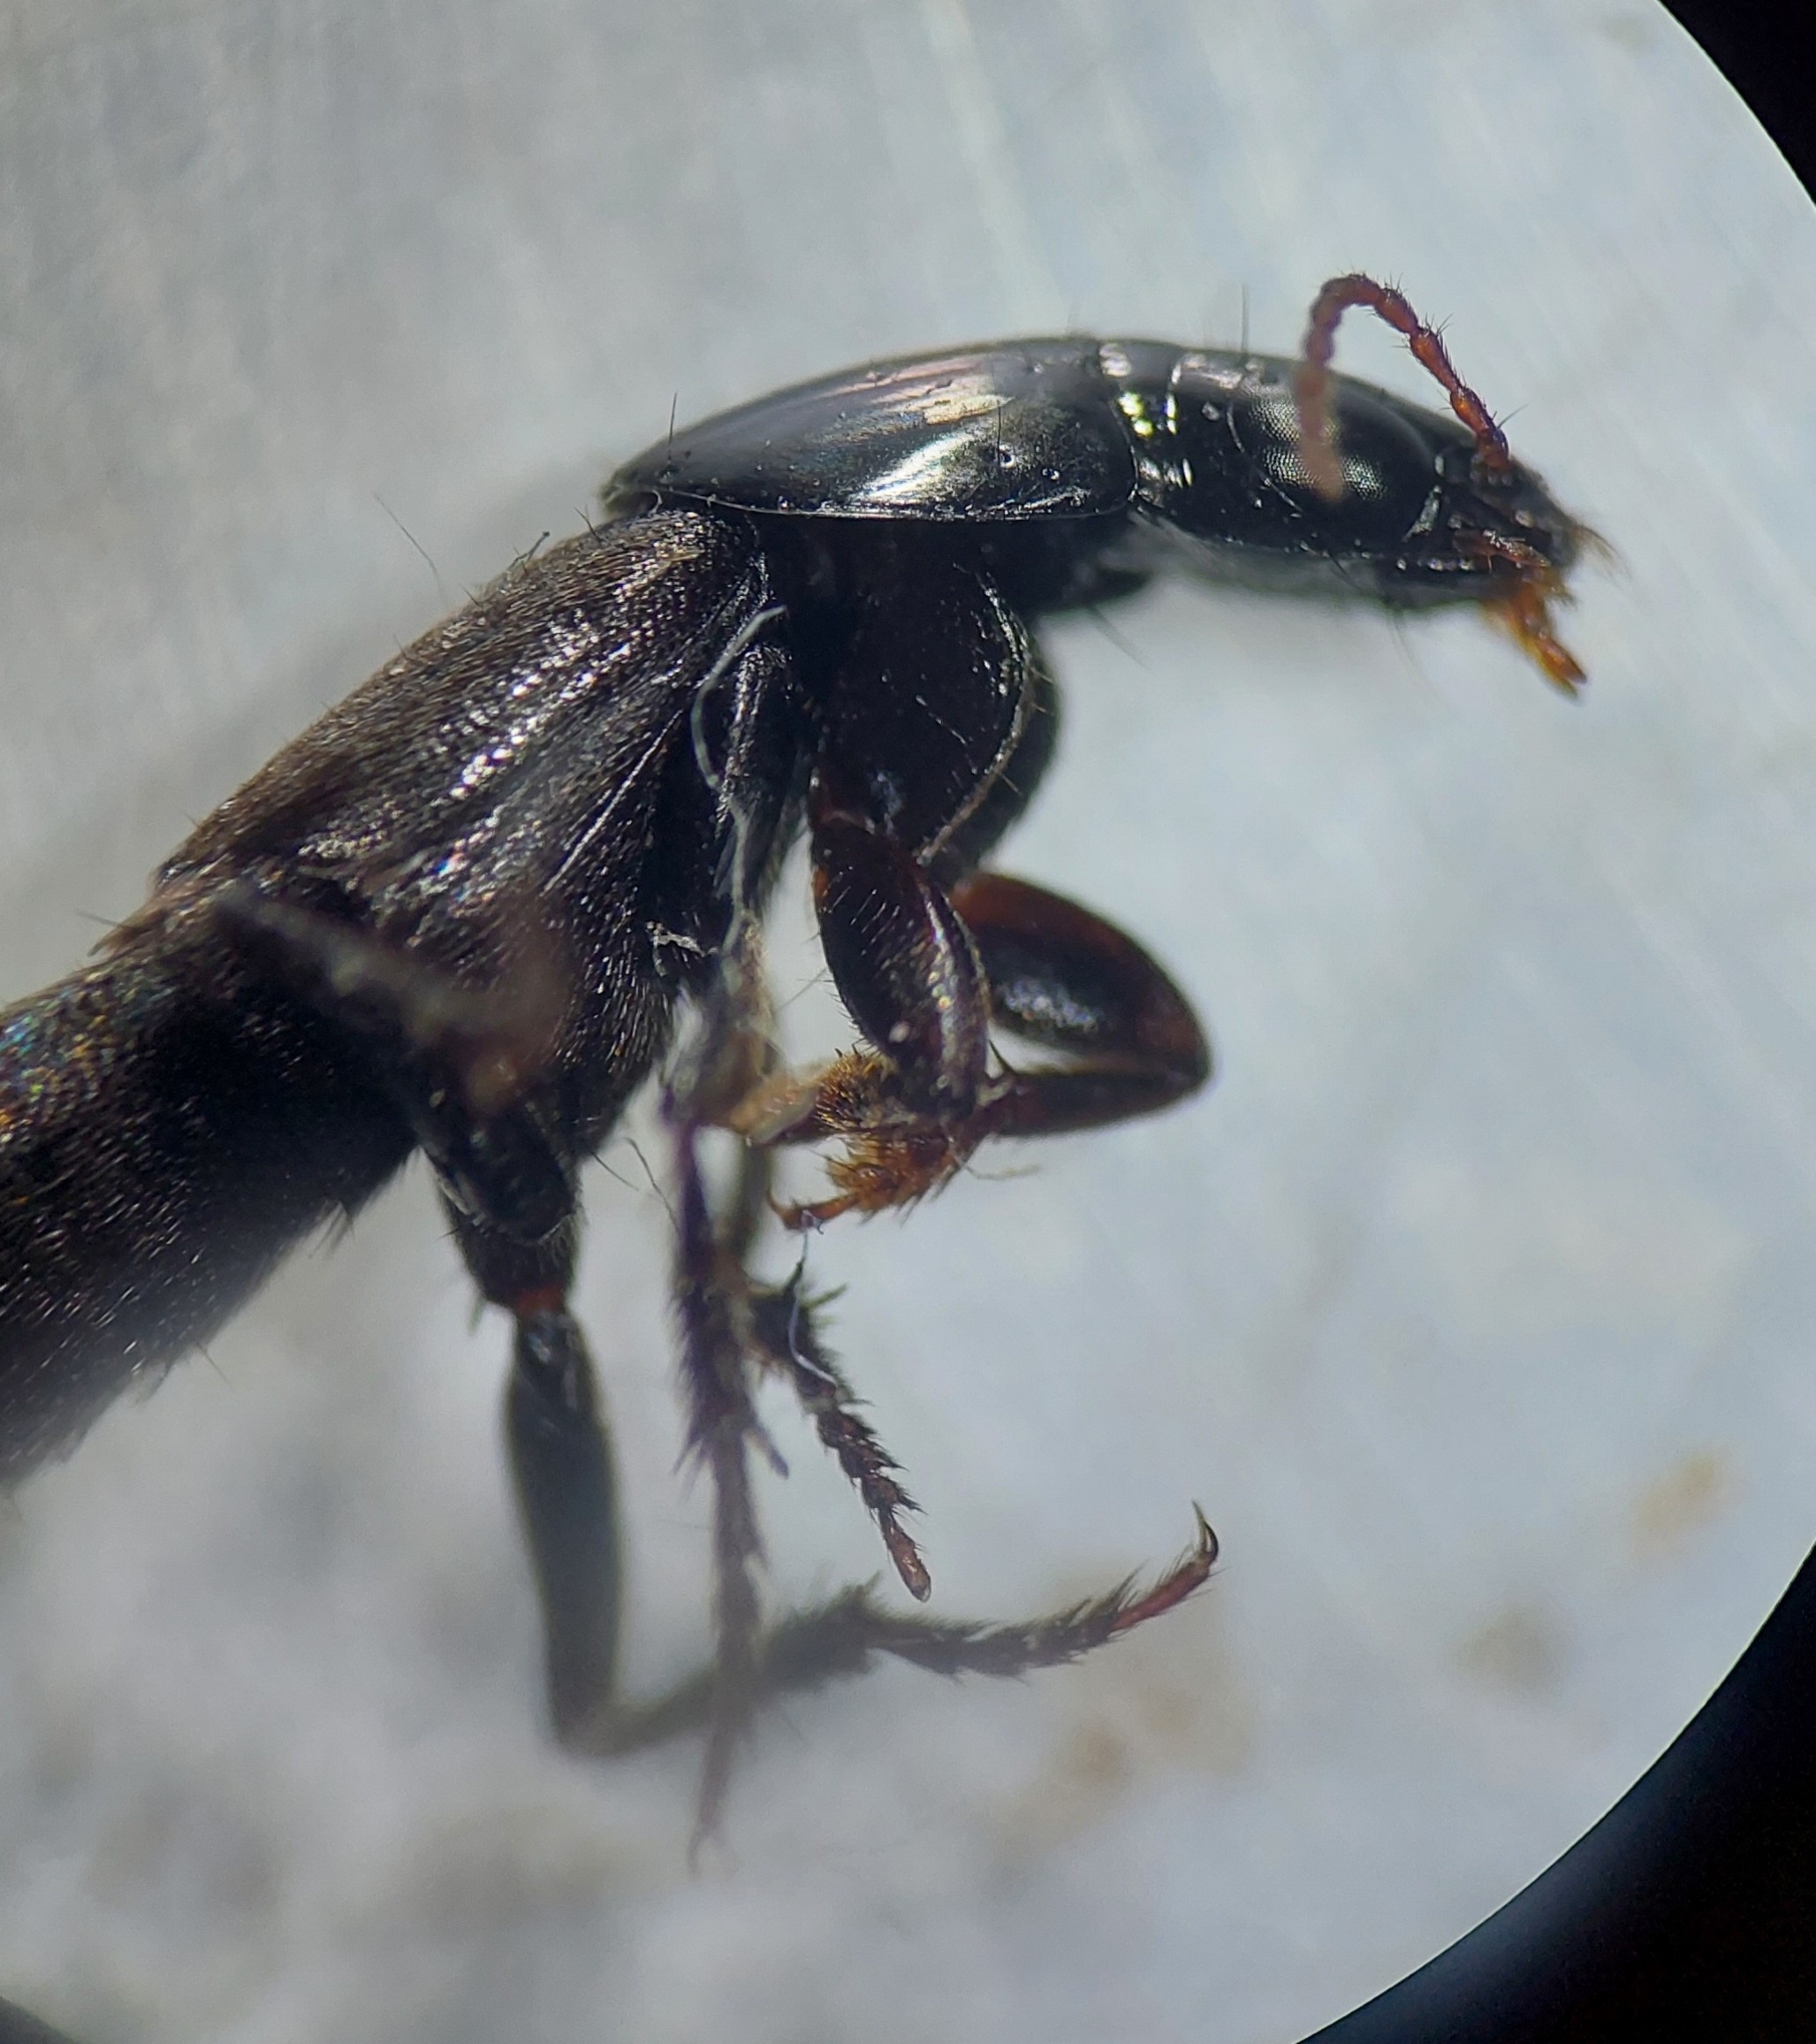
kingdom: Animalia
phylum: Arthropoda
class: Insecta
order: Coleoptera
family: Staphylinidae
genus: Quedius
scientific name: Quedius levicollis
